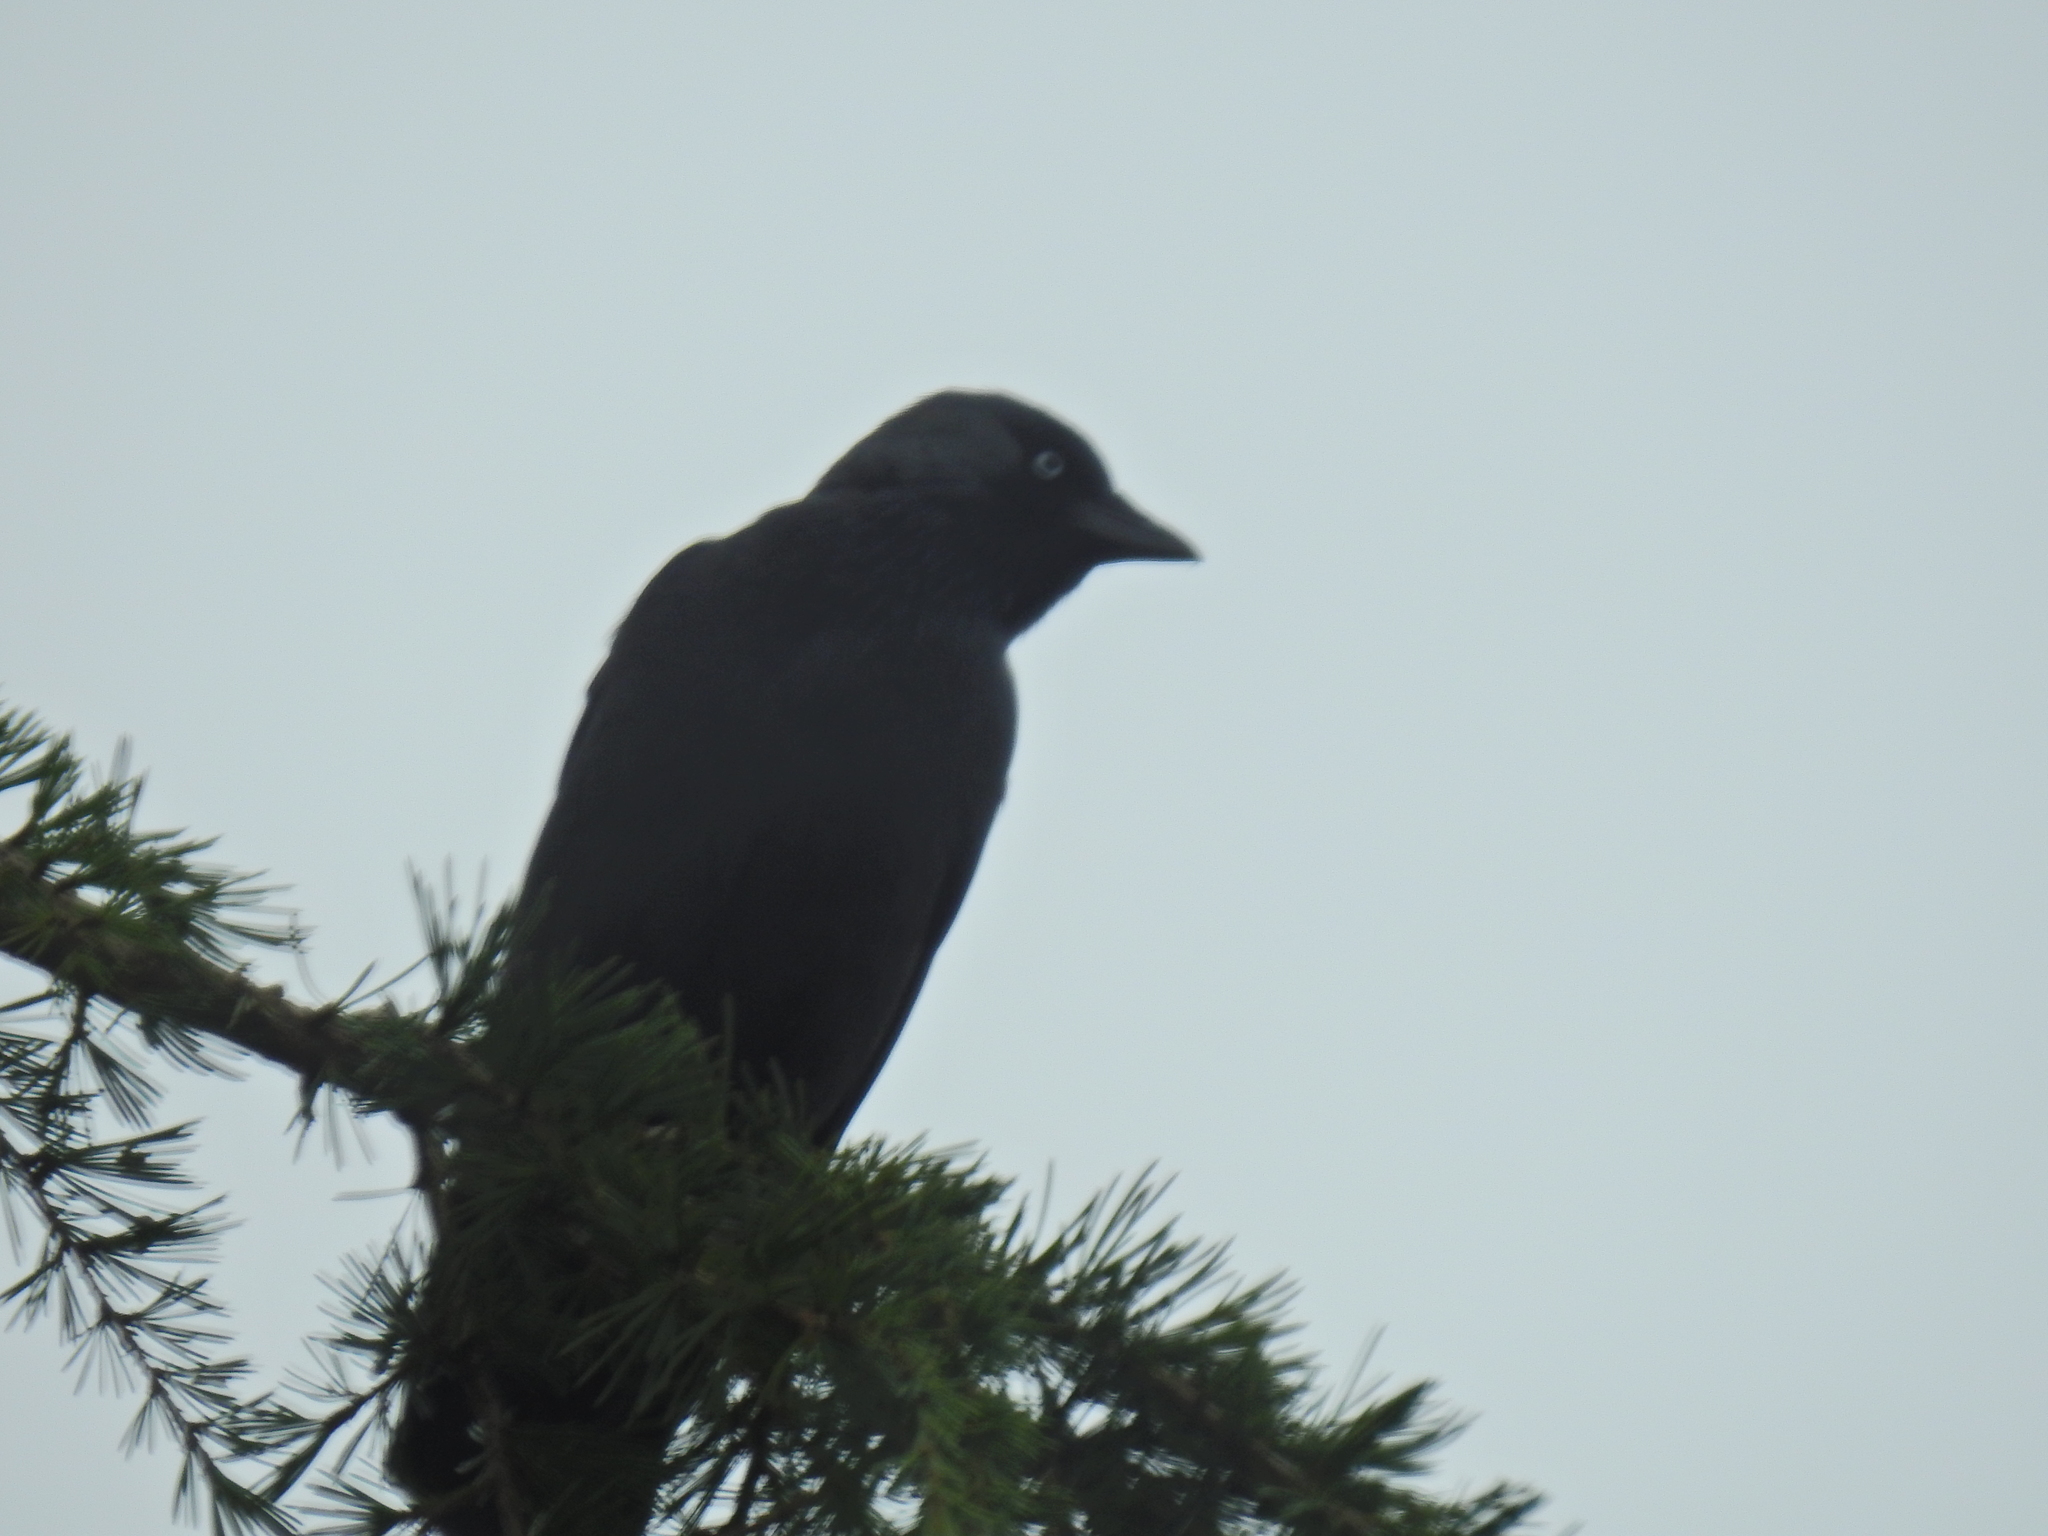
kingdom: Animalia
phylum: Chordata
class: Aves
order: Passeriformes
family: Corvidae
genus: Coloeus
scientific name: Coloeus monedula
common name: Western jackdaw
